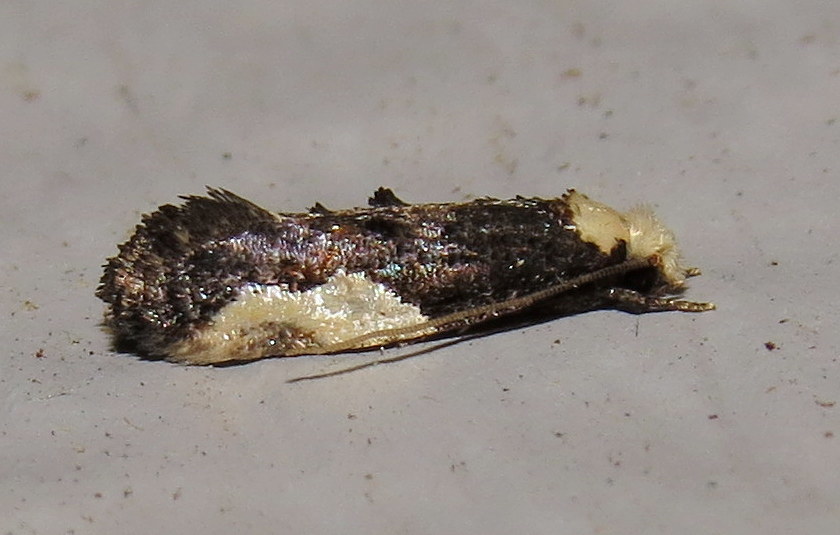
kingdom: Animalia
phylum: Arthropoda
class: Insecta
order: Lepidoptera
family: Tineidae
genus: Monopis
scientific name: Monopis longella
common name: Pavlovski's monopis moth
